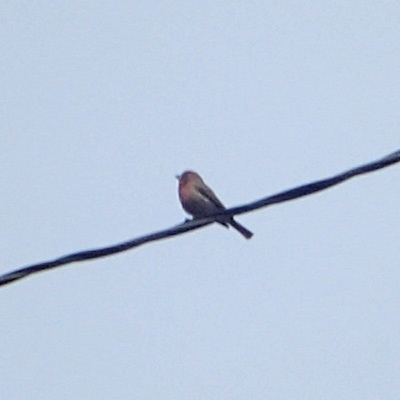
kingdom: Animalia
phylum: Chordata
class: Aves
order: Passeriformes
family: Fringillidae
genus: Haemorhous
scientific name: Haemorhous mexicanus
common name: House finch
